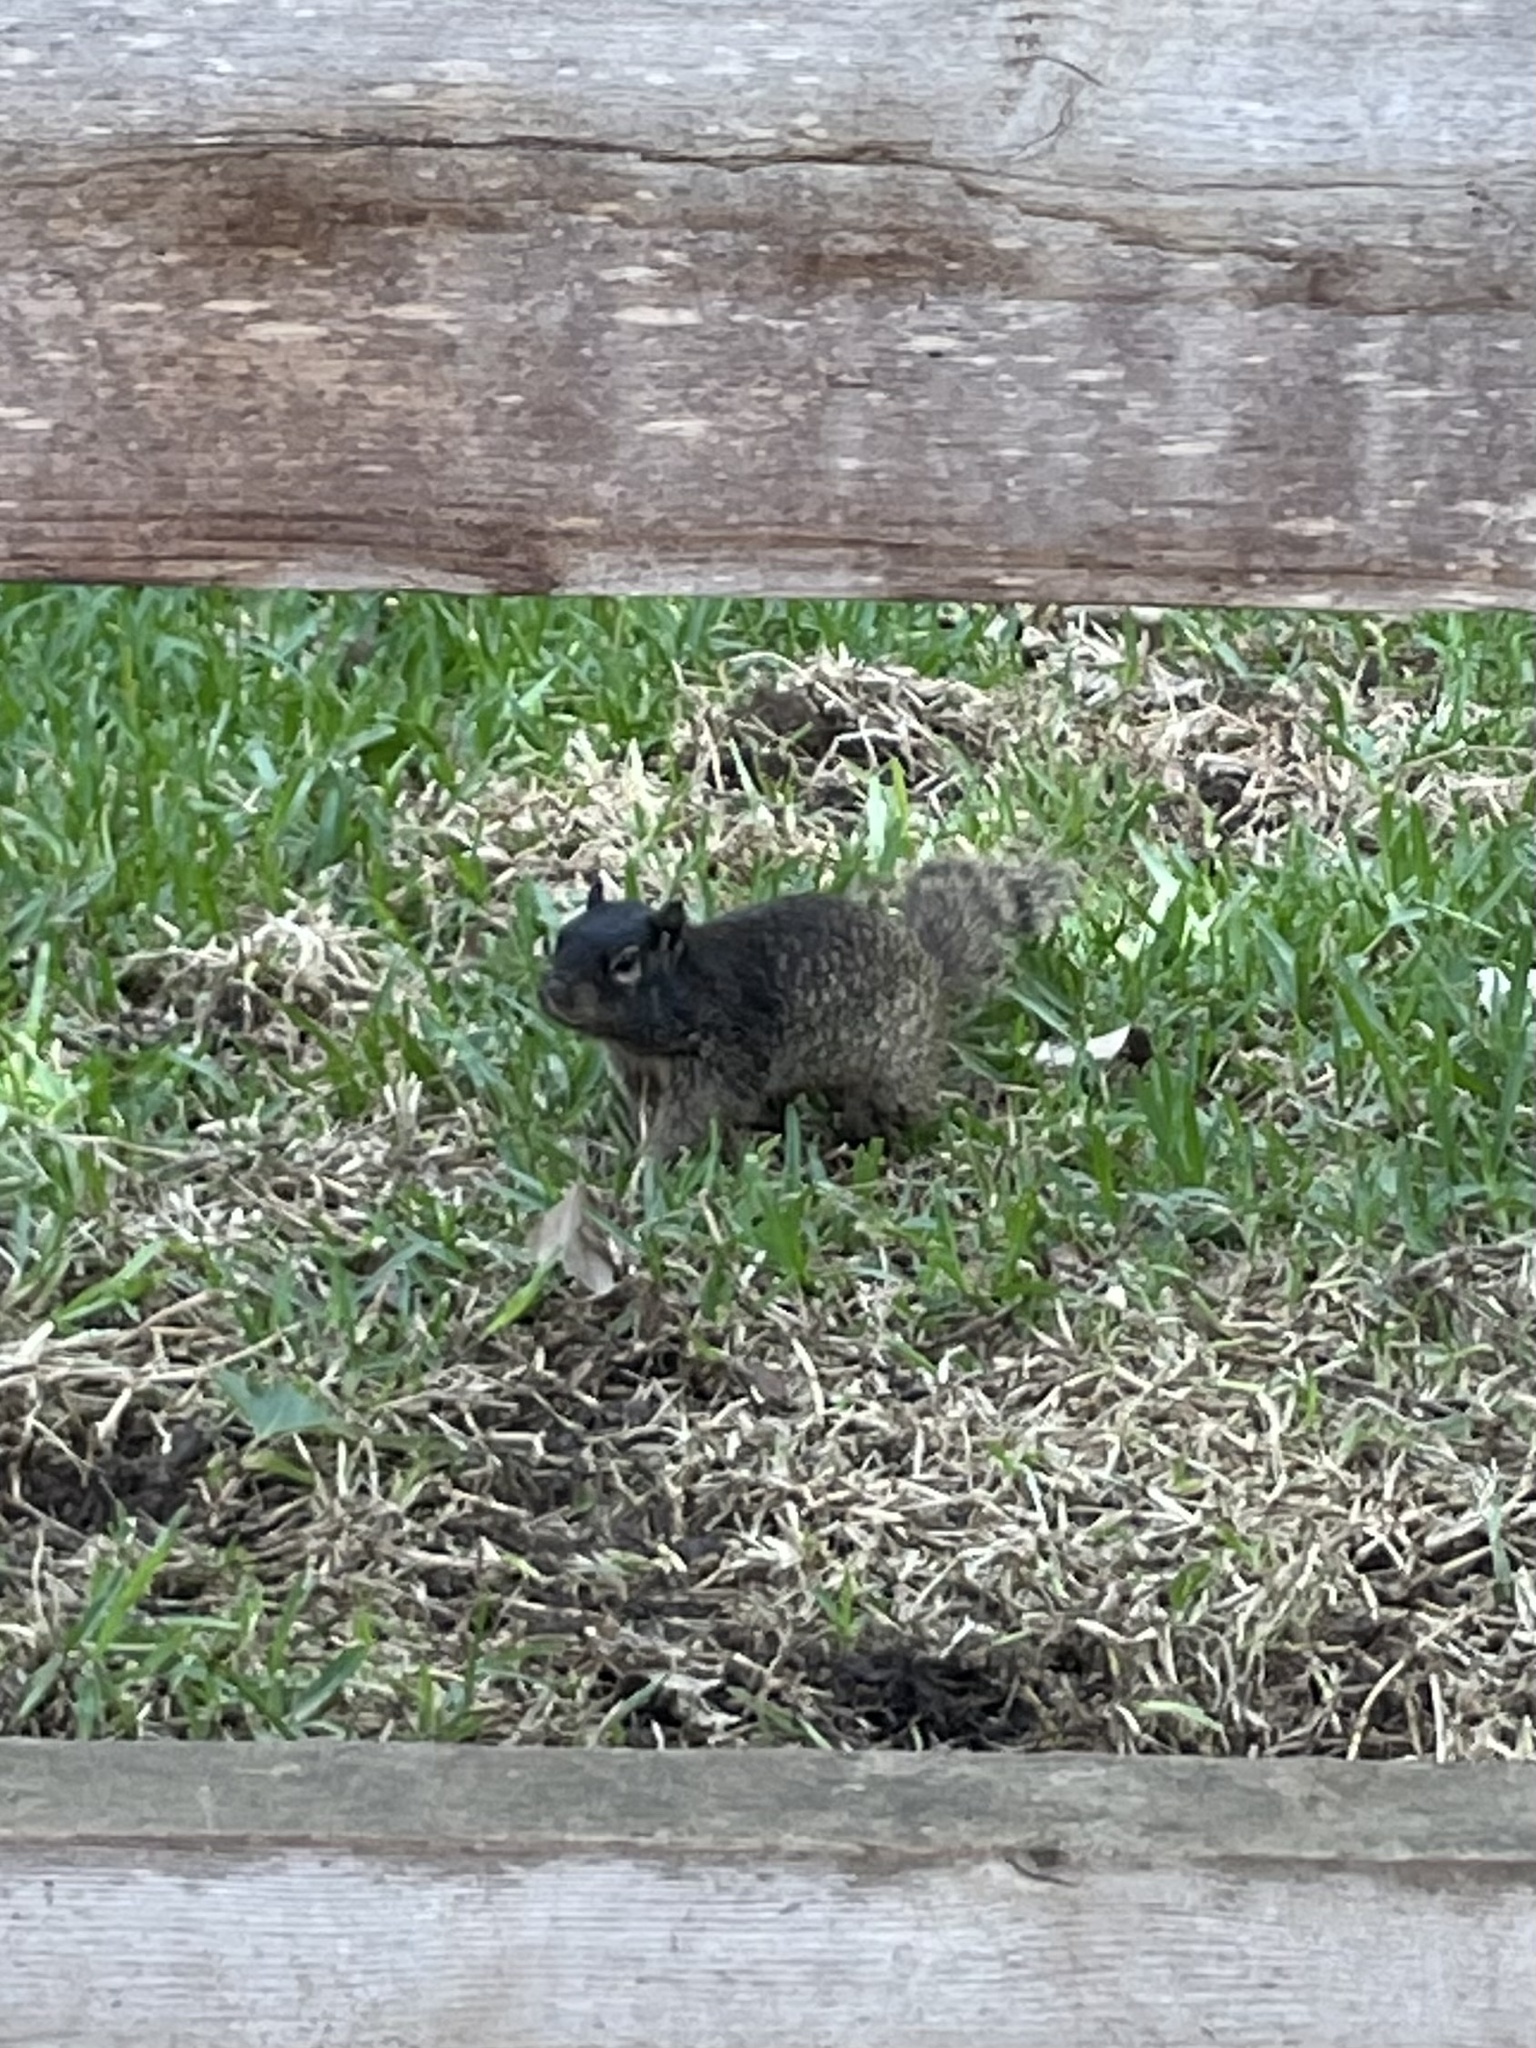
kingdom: Animalia
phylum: Chordata
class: Mammalia
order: Rodentia
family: Sciuridae
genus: Otospermophilus
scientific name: Otospermophilus variegatus
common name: Rock squirrel
